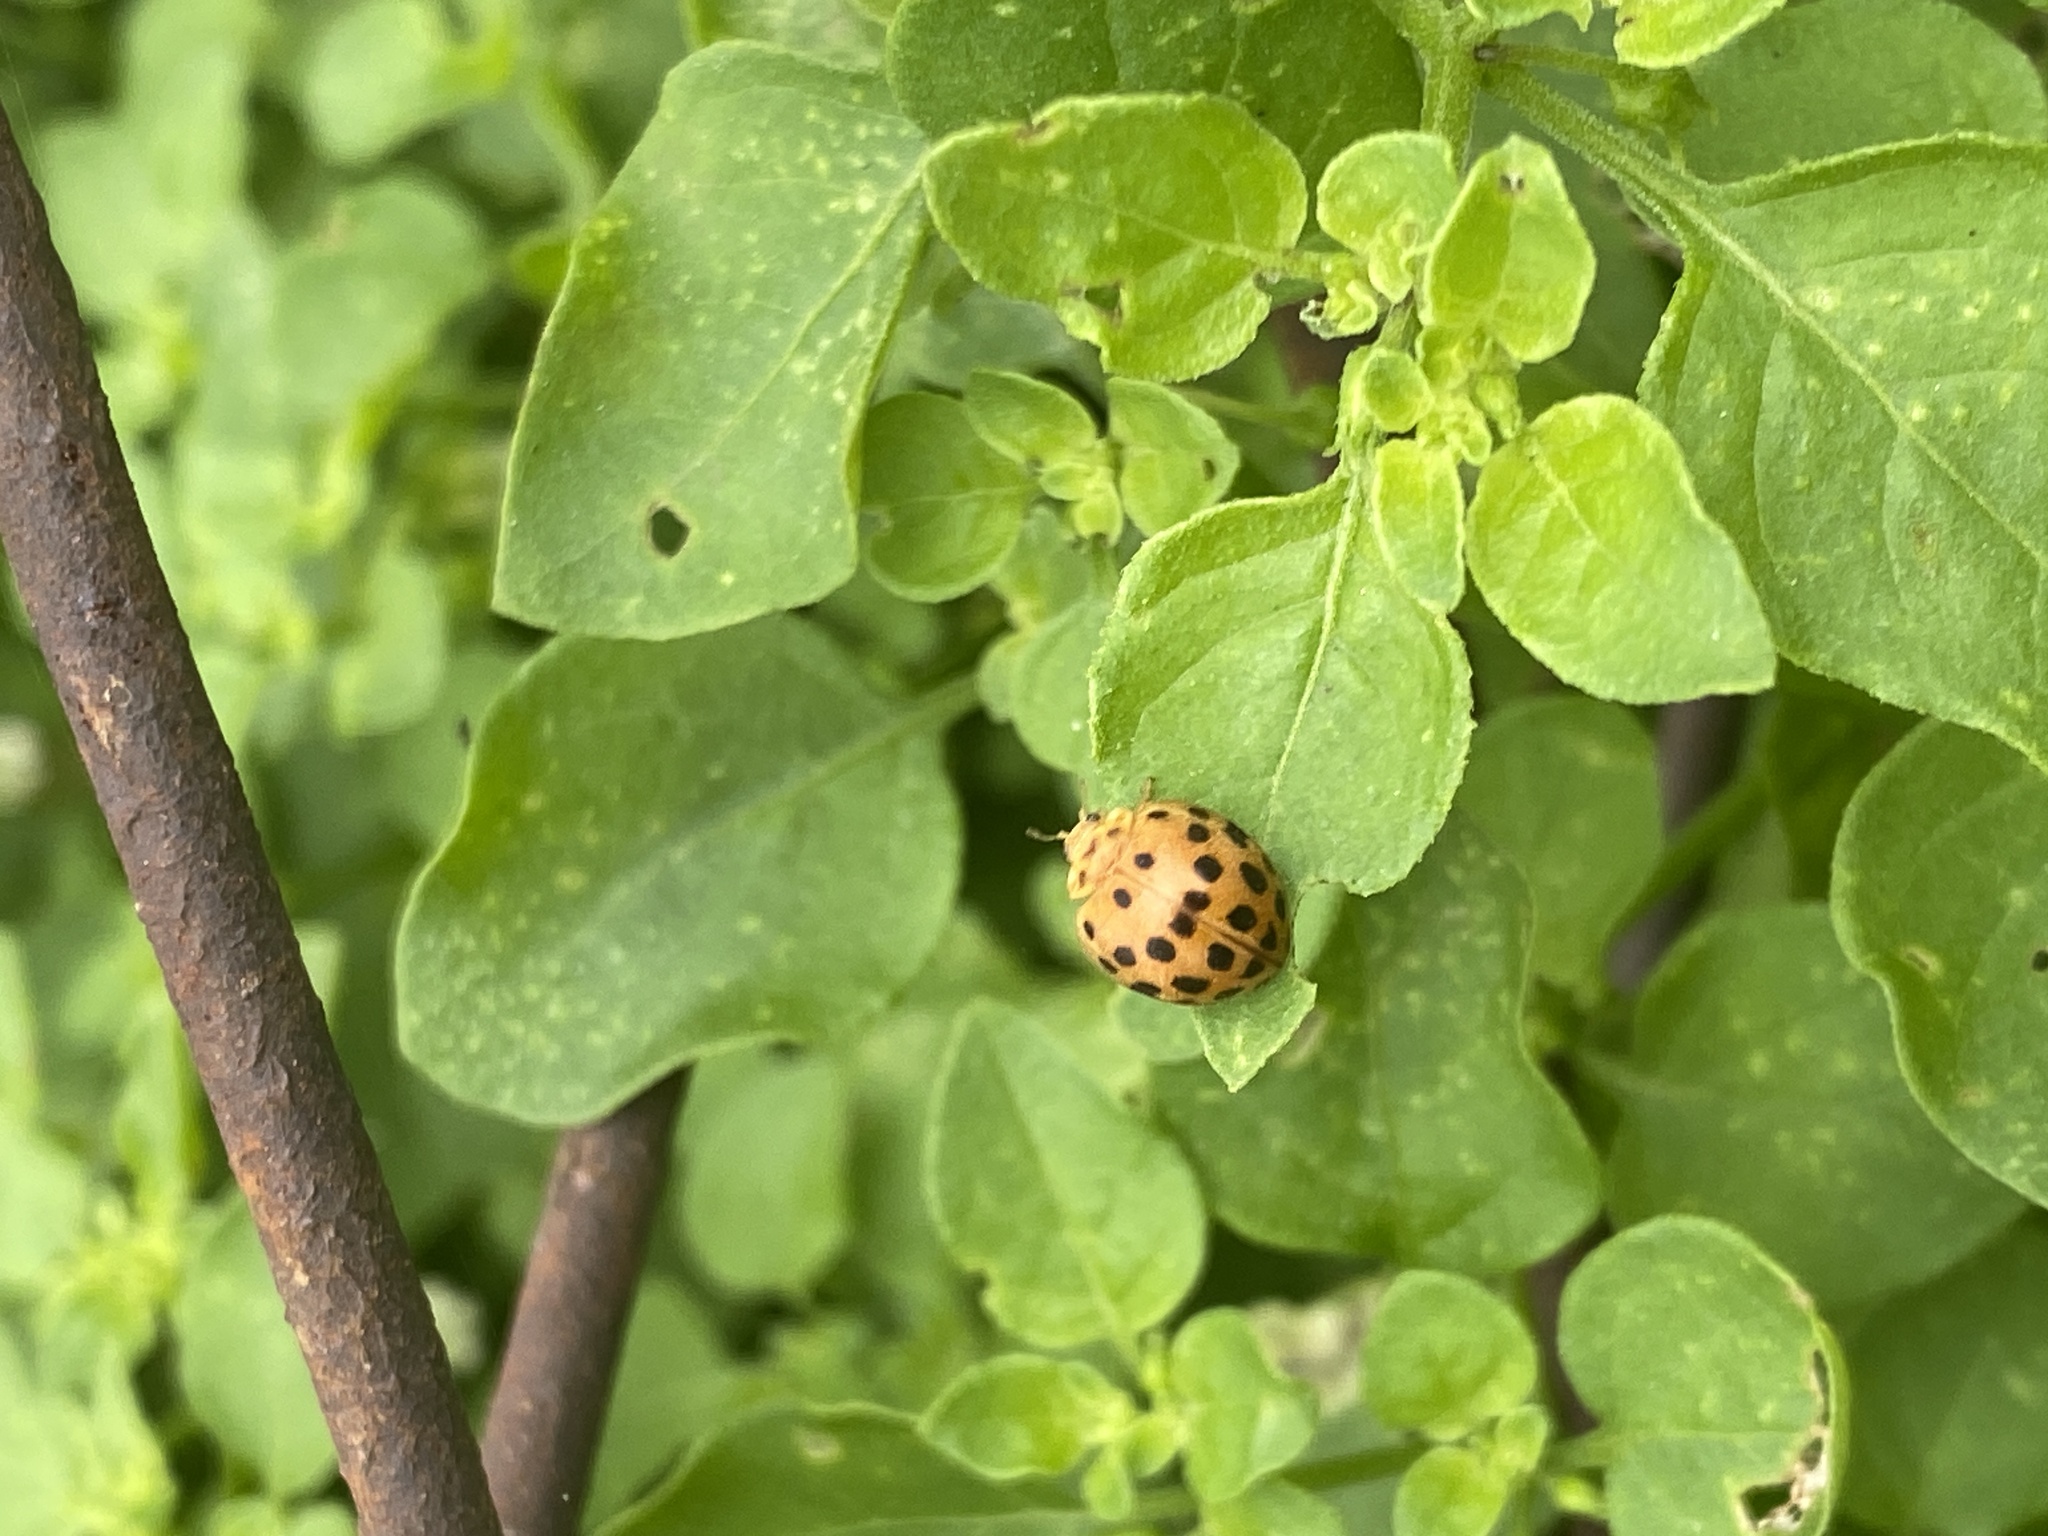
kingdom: Animalia
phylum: Arthropoda
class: Insecta
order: Coleoptera
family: Coccinellidae
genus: Henosepilachna
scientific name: Henosepilachna vigintioctopunctata
